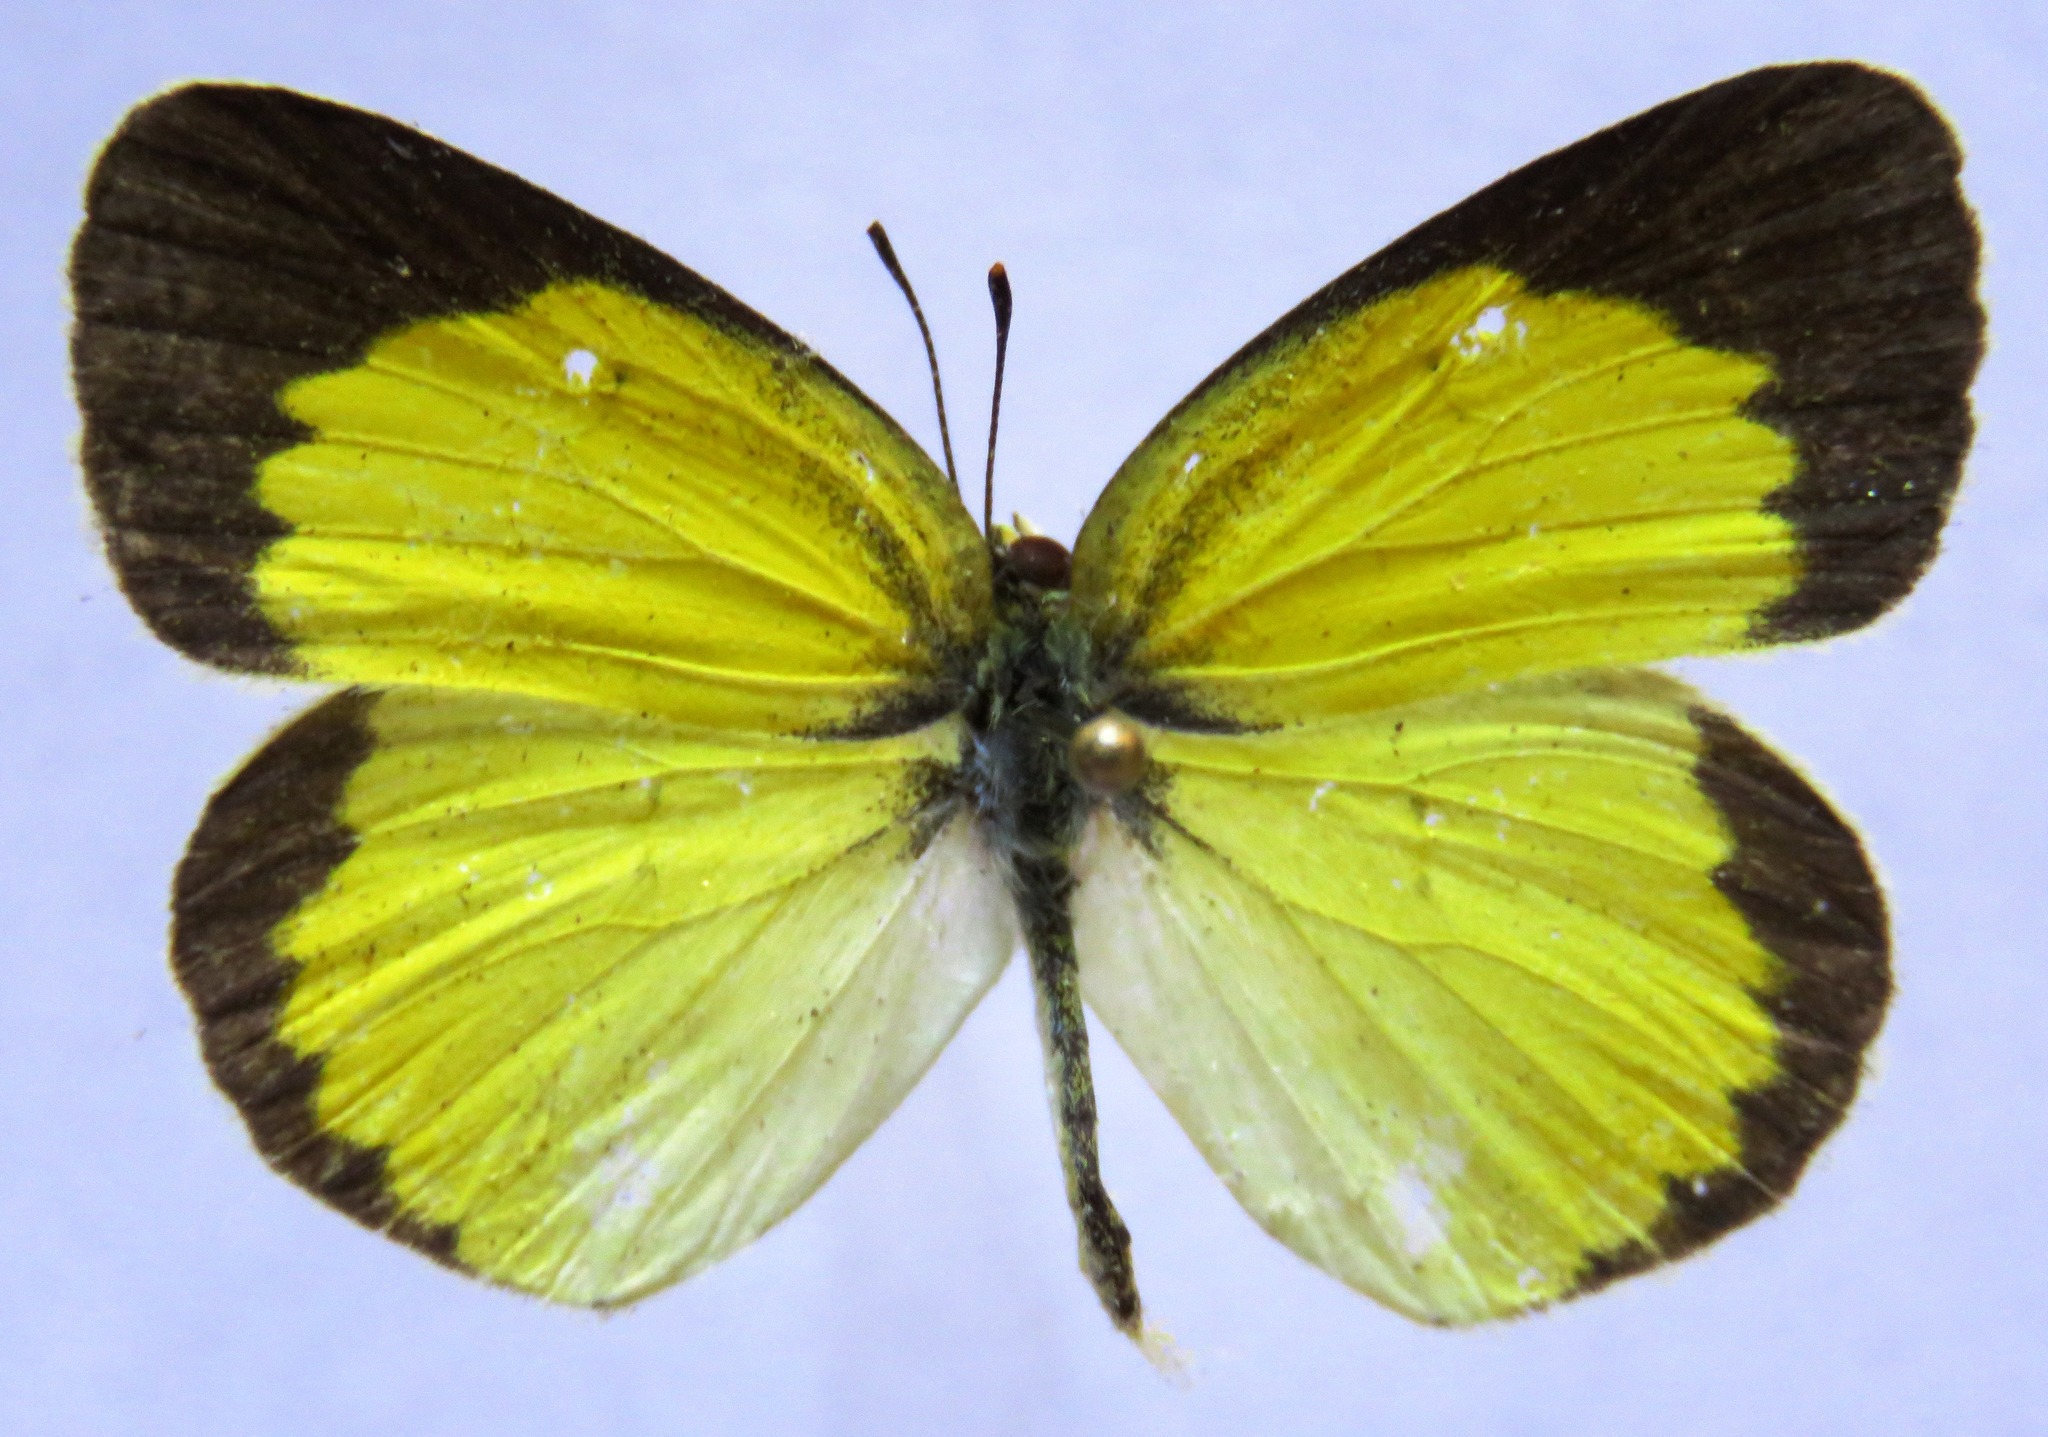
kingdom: Animalia
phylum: Arthropoda
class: Insecta
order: Lepidoptera
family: Pieridae
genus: Pyrisitia
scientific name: Pyrisitia lisa
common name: Little yellow
